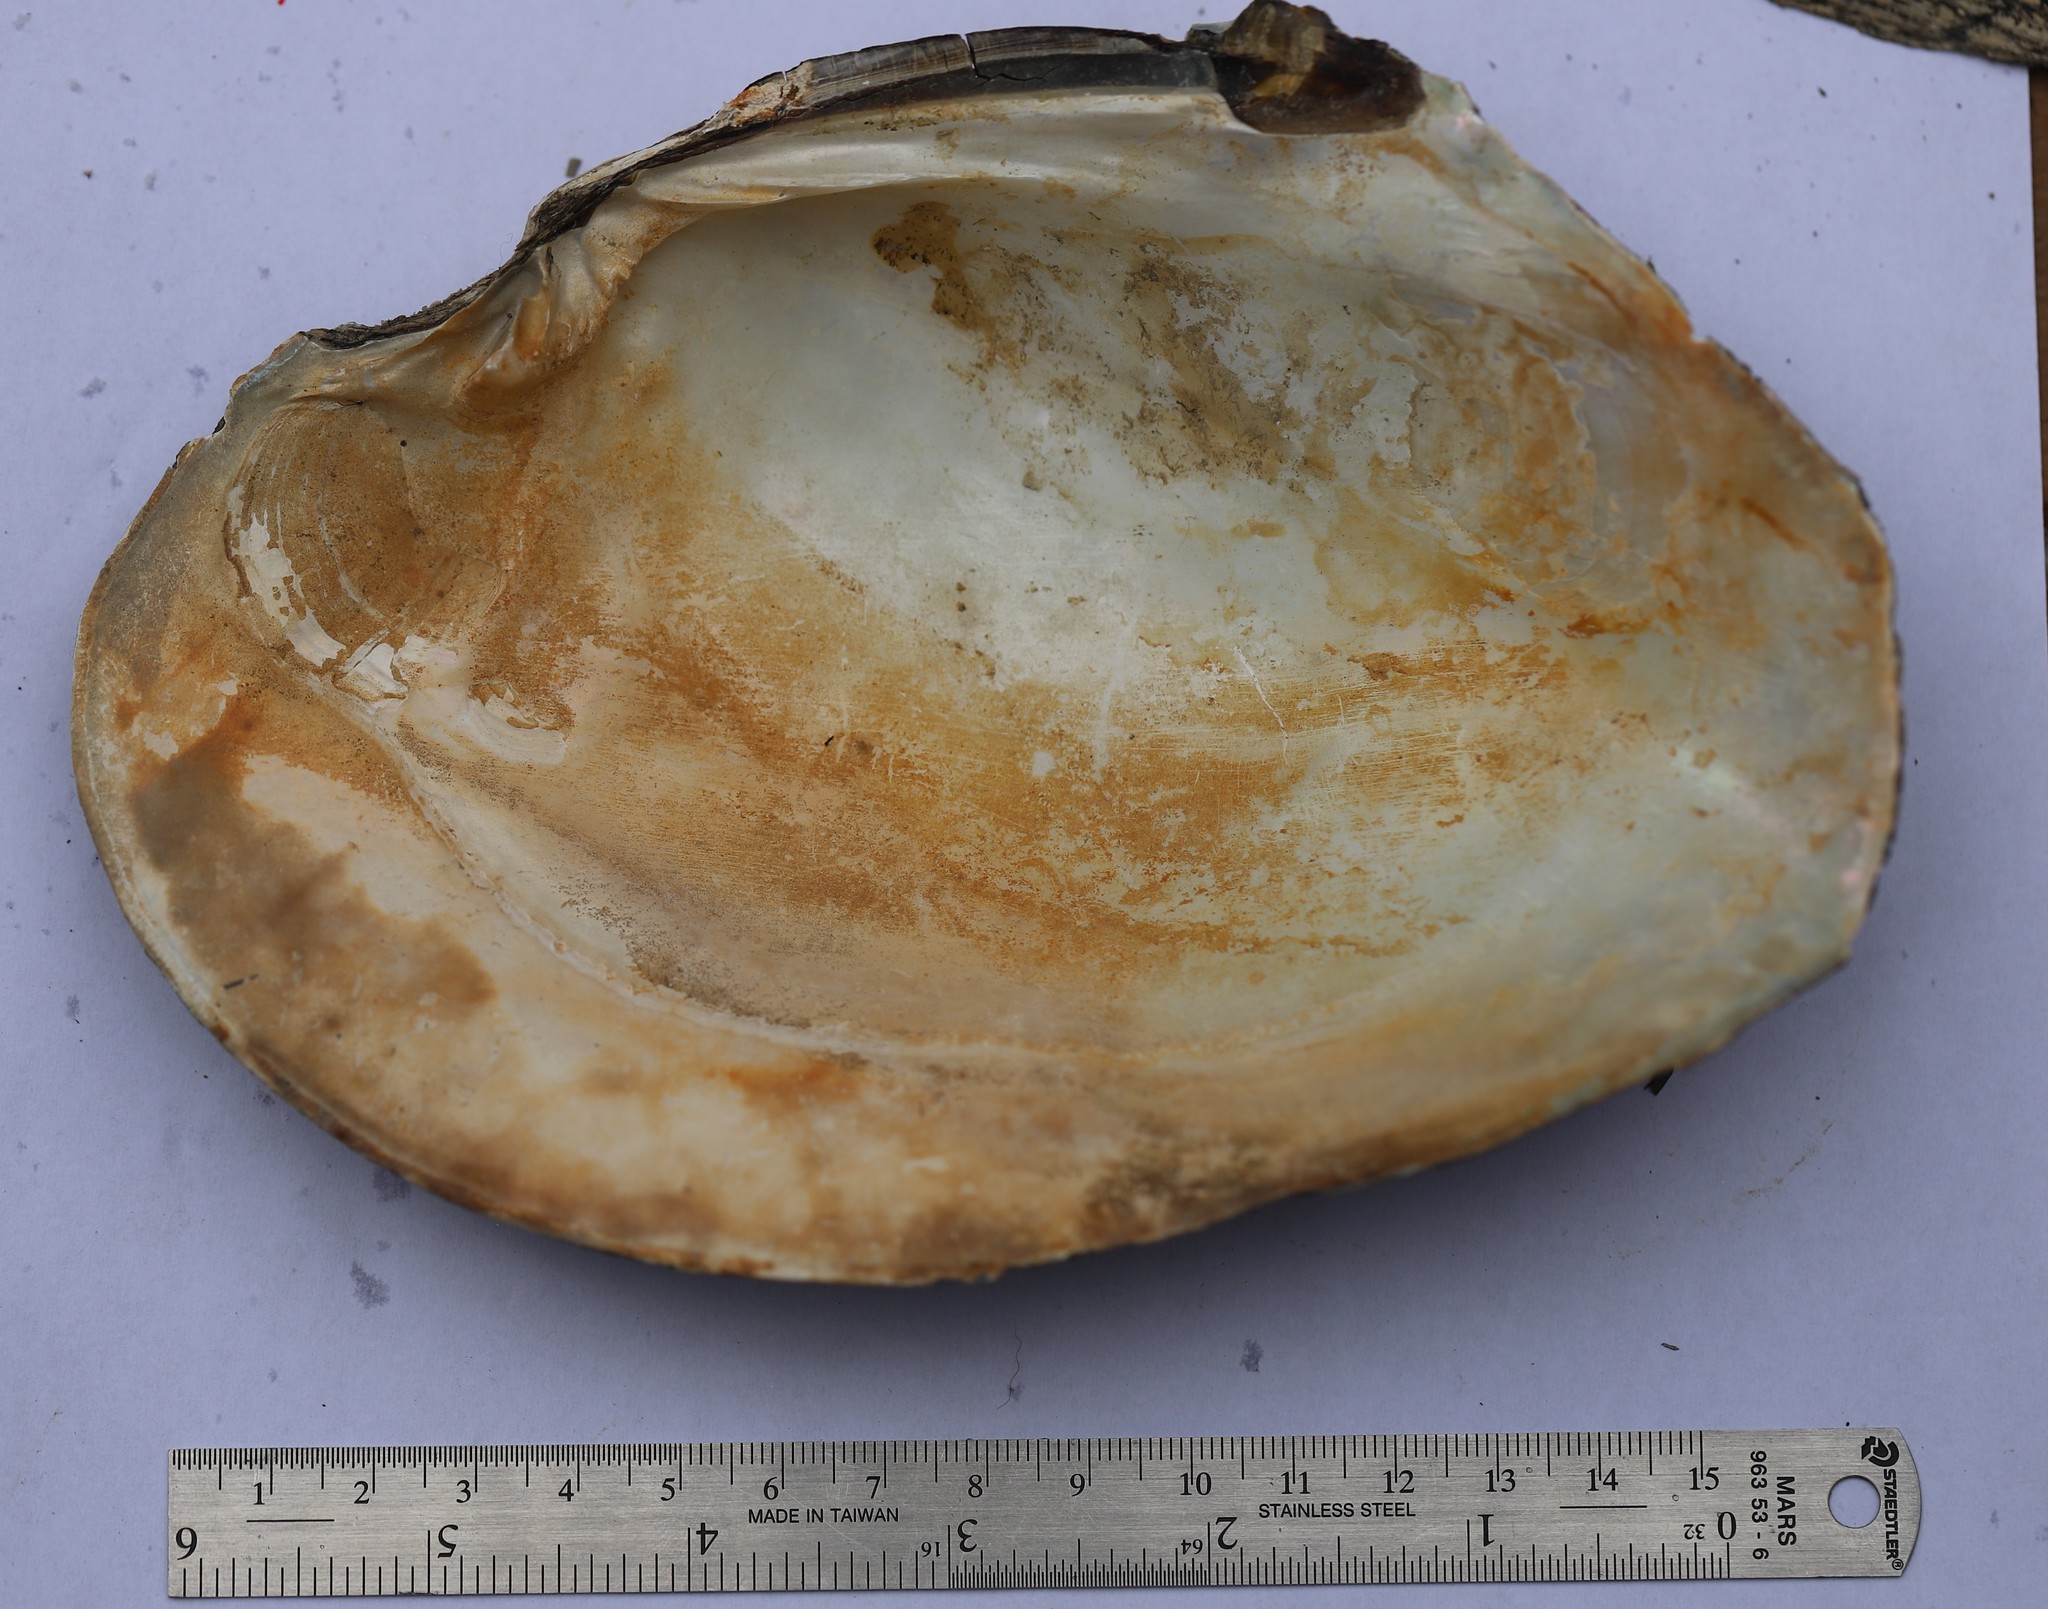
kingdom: Animalia
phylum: Mollusca
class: Bivalvia
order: Unionida
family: Unionidae
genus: Lasmigona
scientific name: Lasmigona complanata
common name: White heelsplitter
